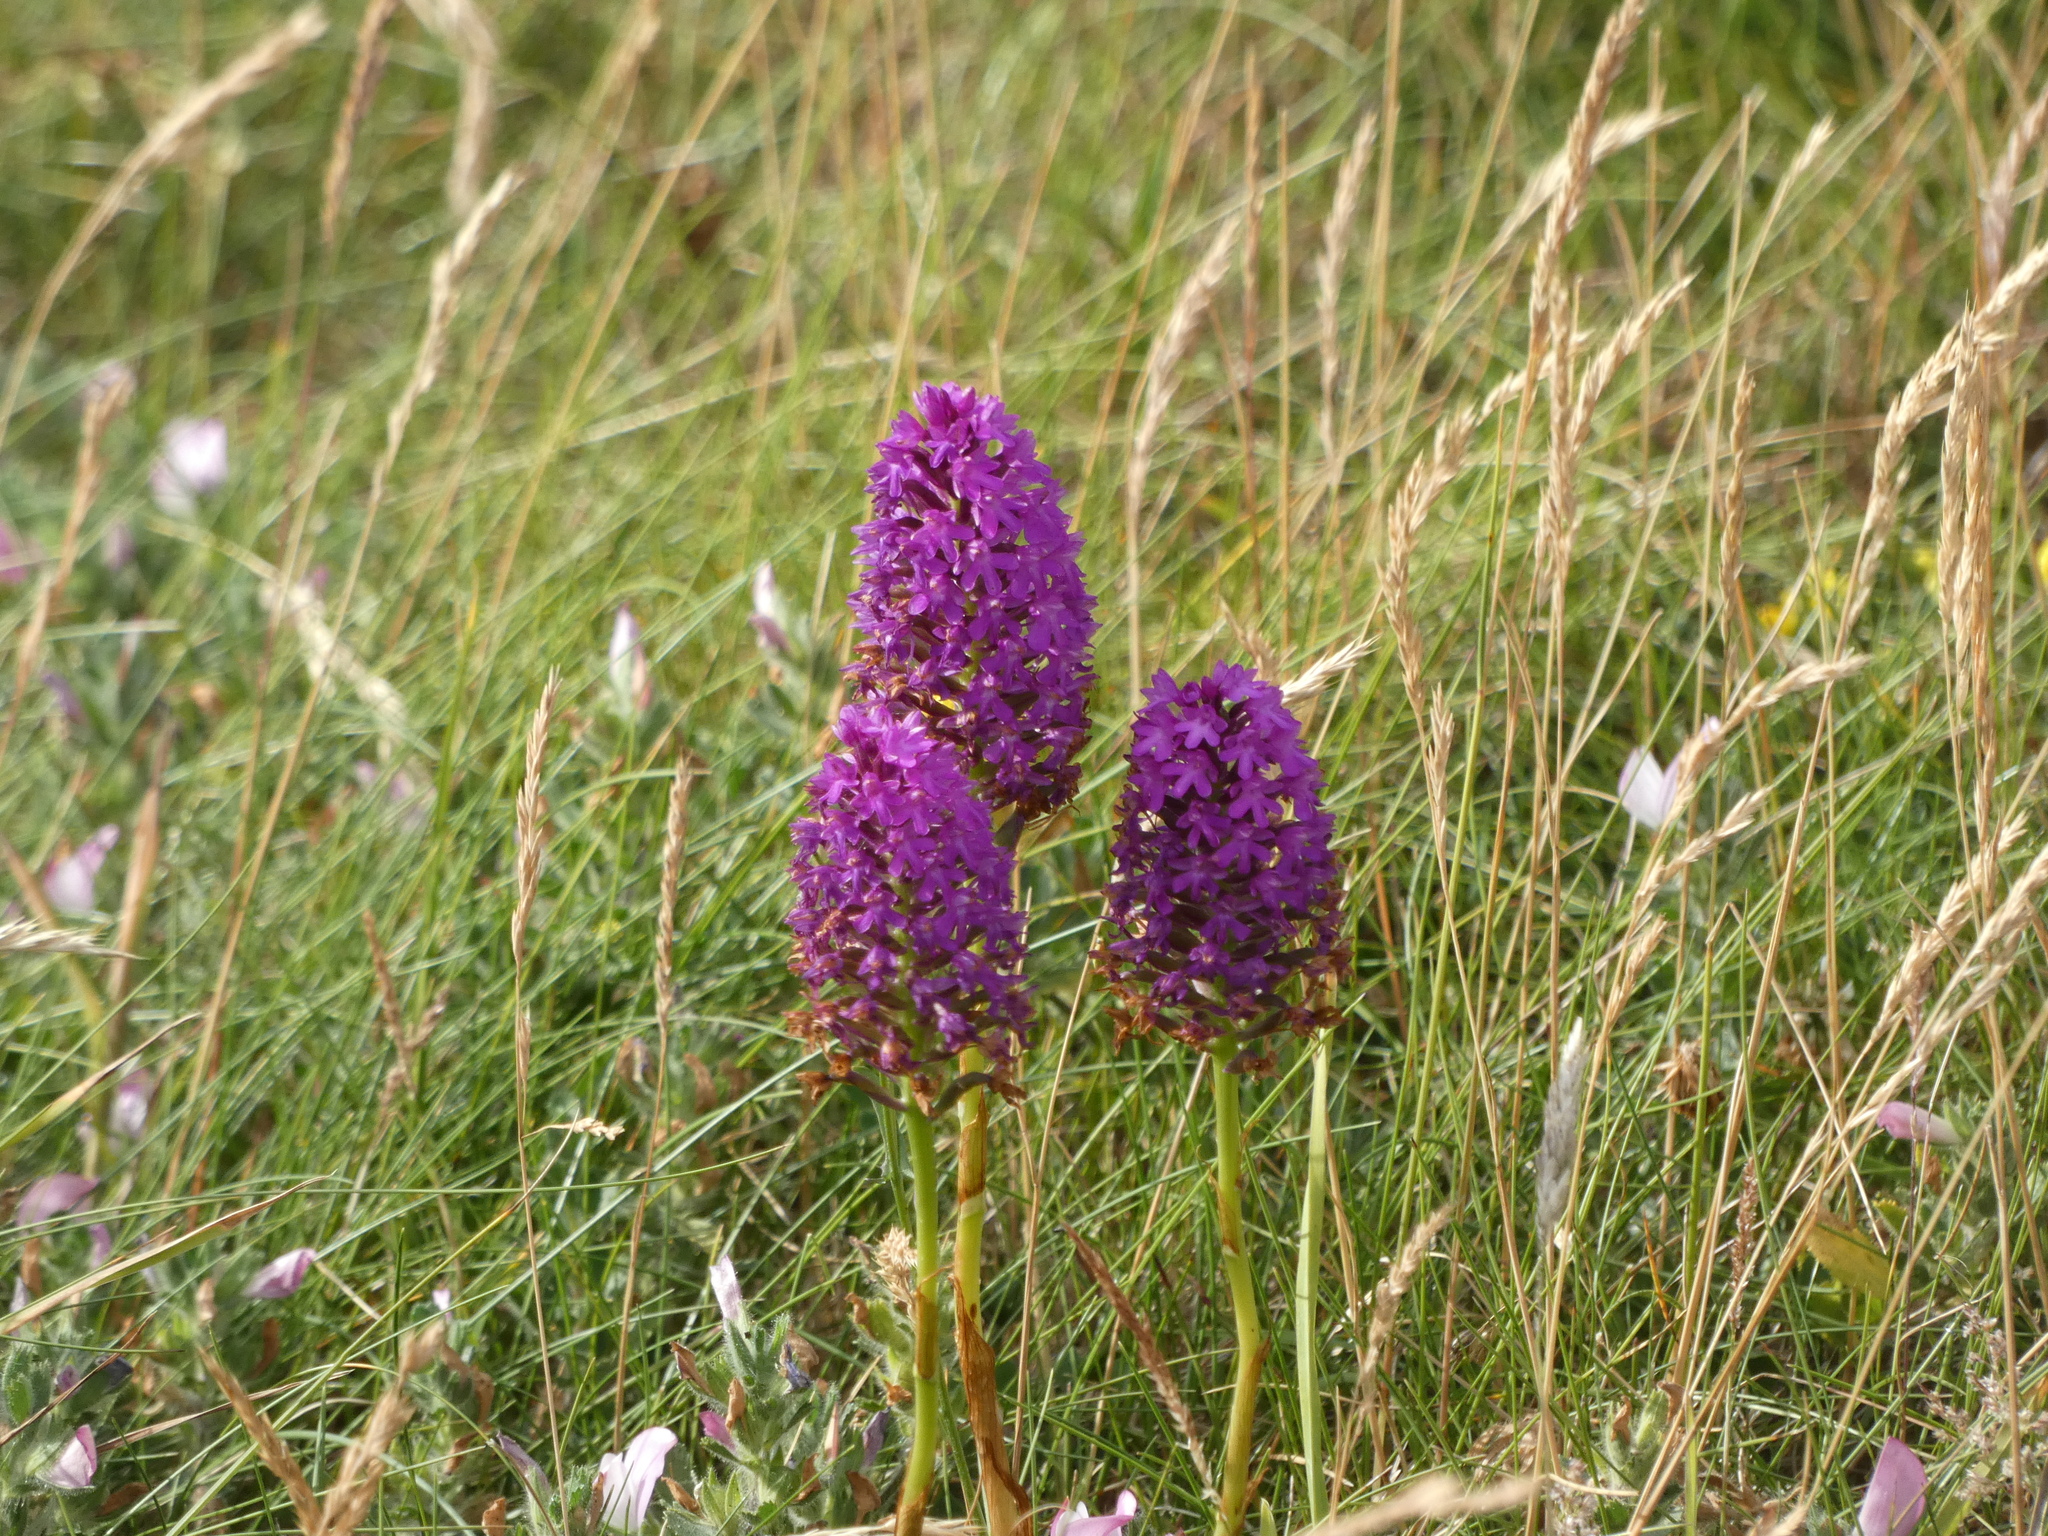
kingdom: Plantae
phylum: Tracheophyta
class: Liliopsida
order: Asparagales
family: Orchidaceae
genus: Anacamptis
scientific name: Anacamptis pyramidalis
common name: Pyramidal orchid
